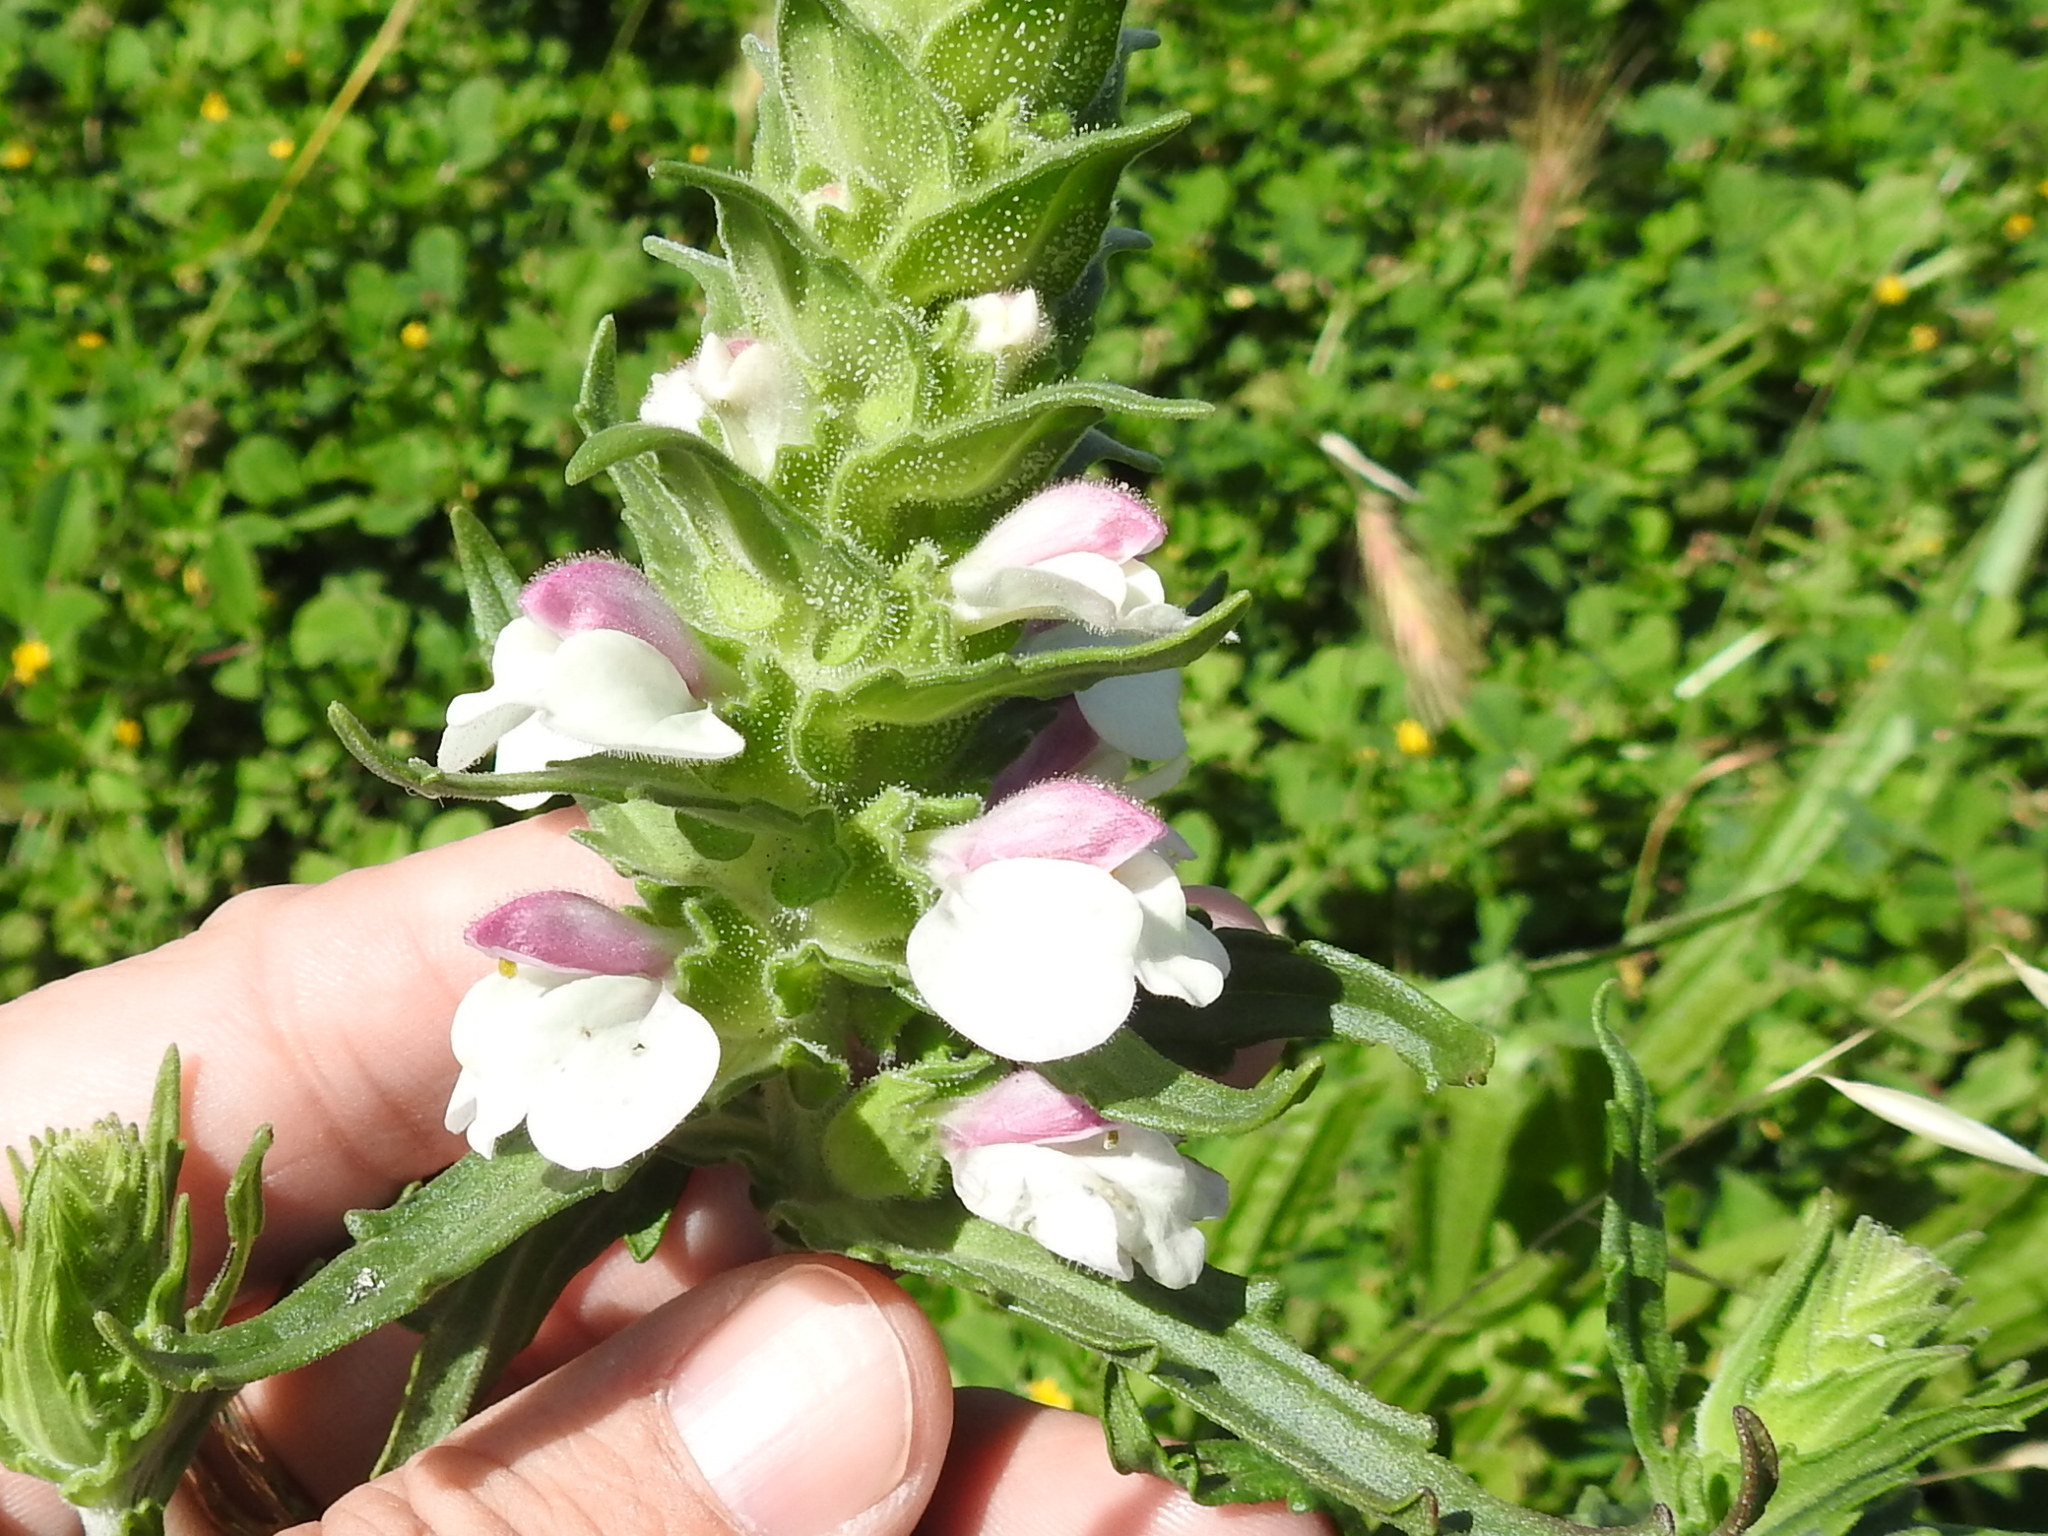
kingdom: Plantae
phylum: Tracheophyta
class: Magnoliopsida
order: Lamiales
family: Orobanchaceae
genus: Bellardia
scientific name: Bellardia trixago
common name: Mediterranean lineseed
